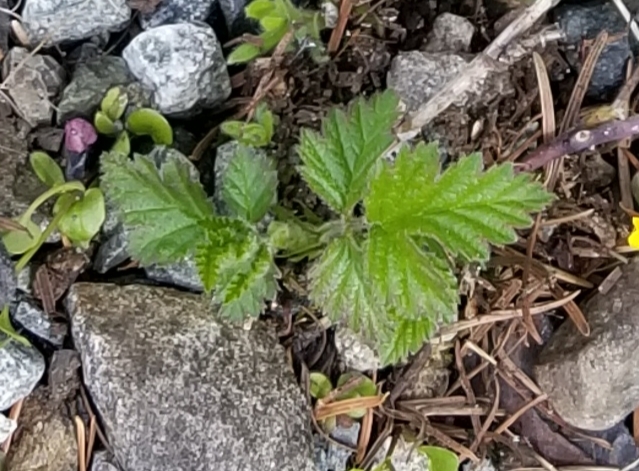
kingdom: Plantae
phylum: Tracheophyta
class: Magnoliopsida
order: Rosales
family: Rosaceae
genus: Rubus
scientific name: Rubus ursinus
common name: Pacific blackberry
